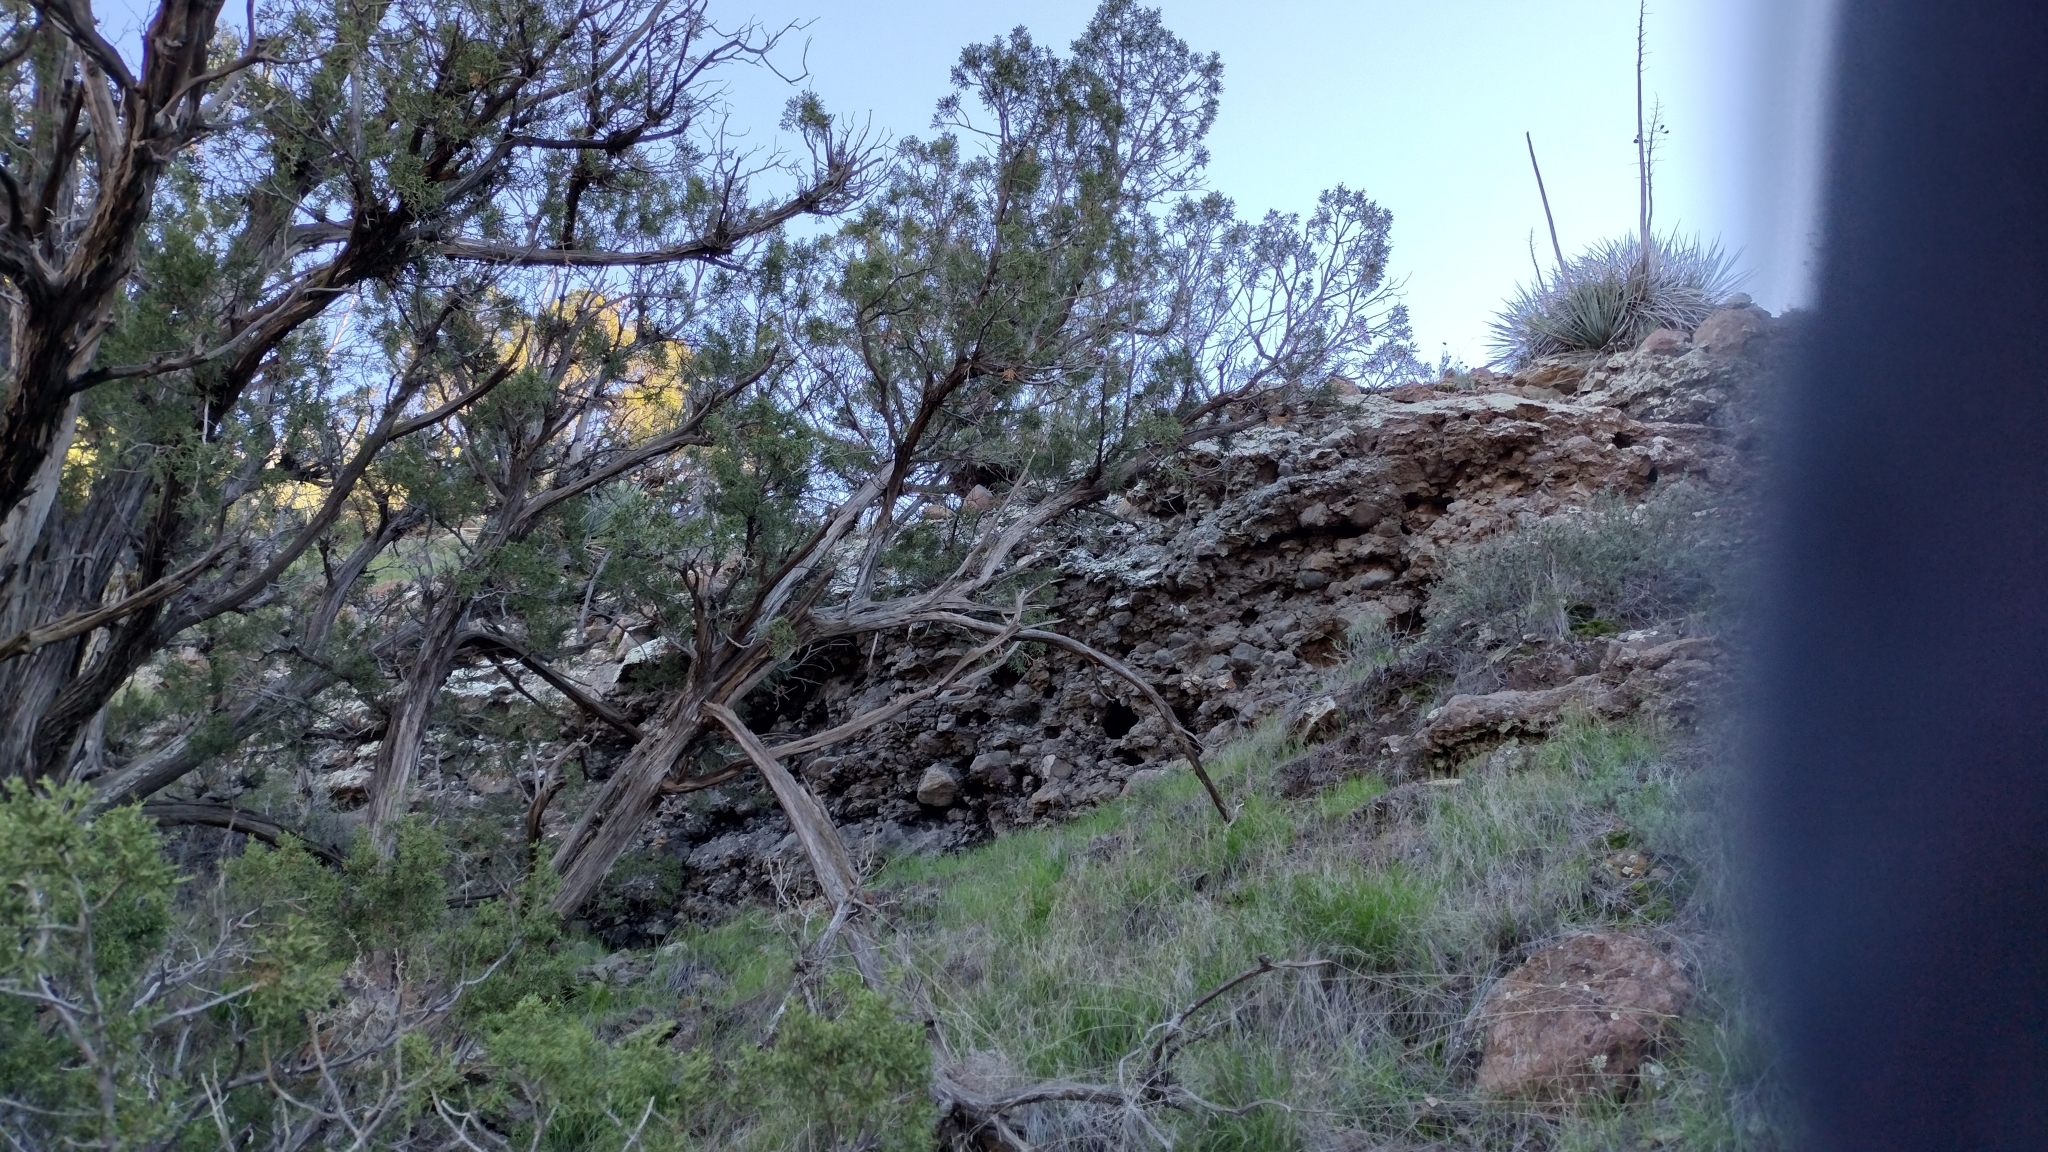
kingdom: Plantae
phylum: Tracheophyta
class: Pinopsida
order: Pinales
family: Cupressaceae
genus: Juniperus
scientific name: Juniperus californica
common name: California juniper
